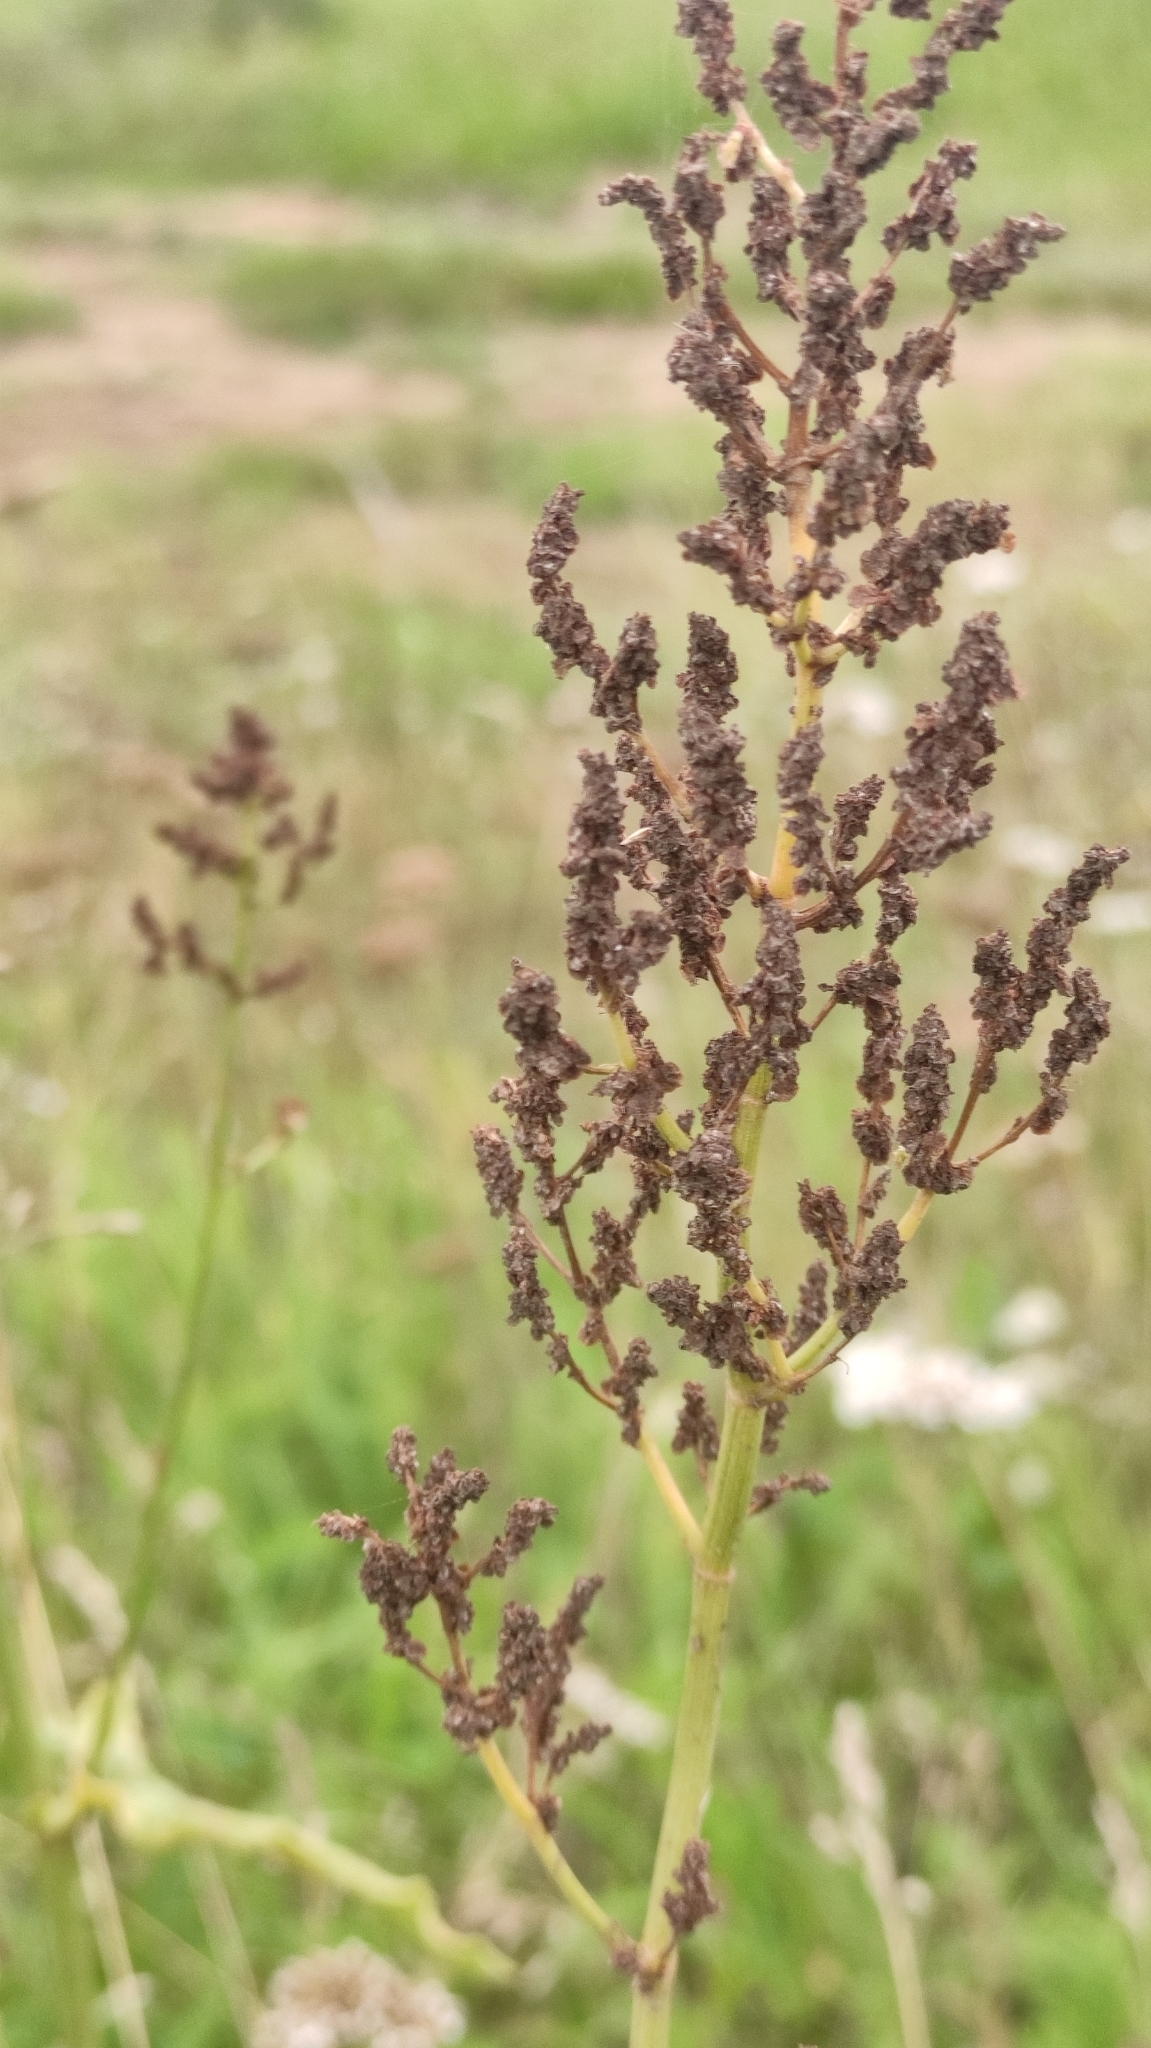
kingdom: Plantae
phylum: Tracheophyta
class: Magnoliopsida
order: Caryophyllales
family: Polygonaceae
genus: Rumex
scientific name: Rumex acetosa
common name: Garden sorrel
